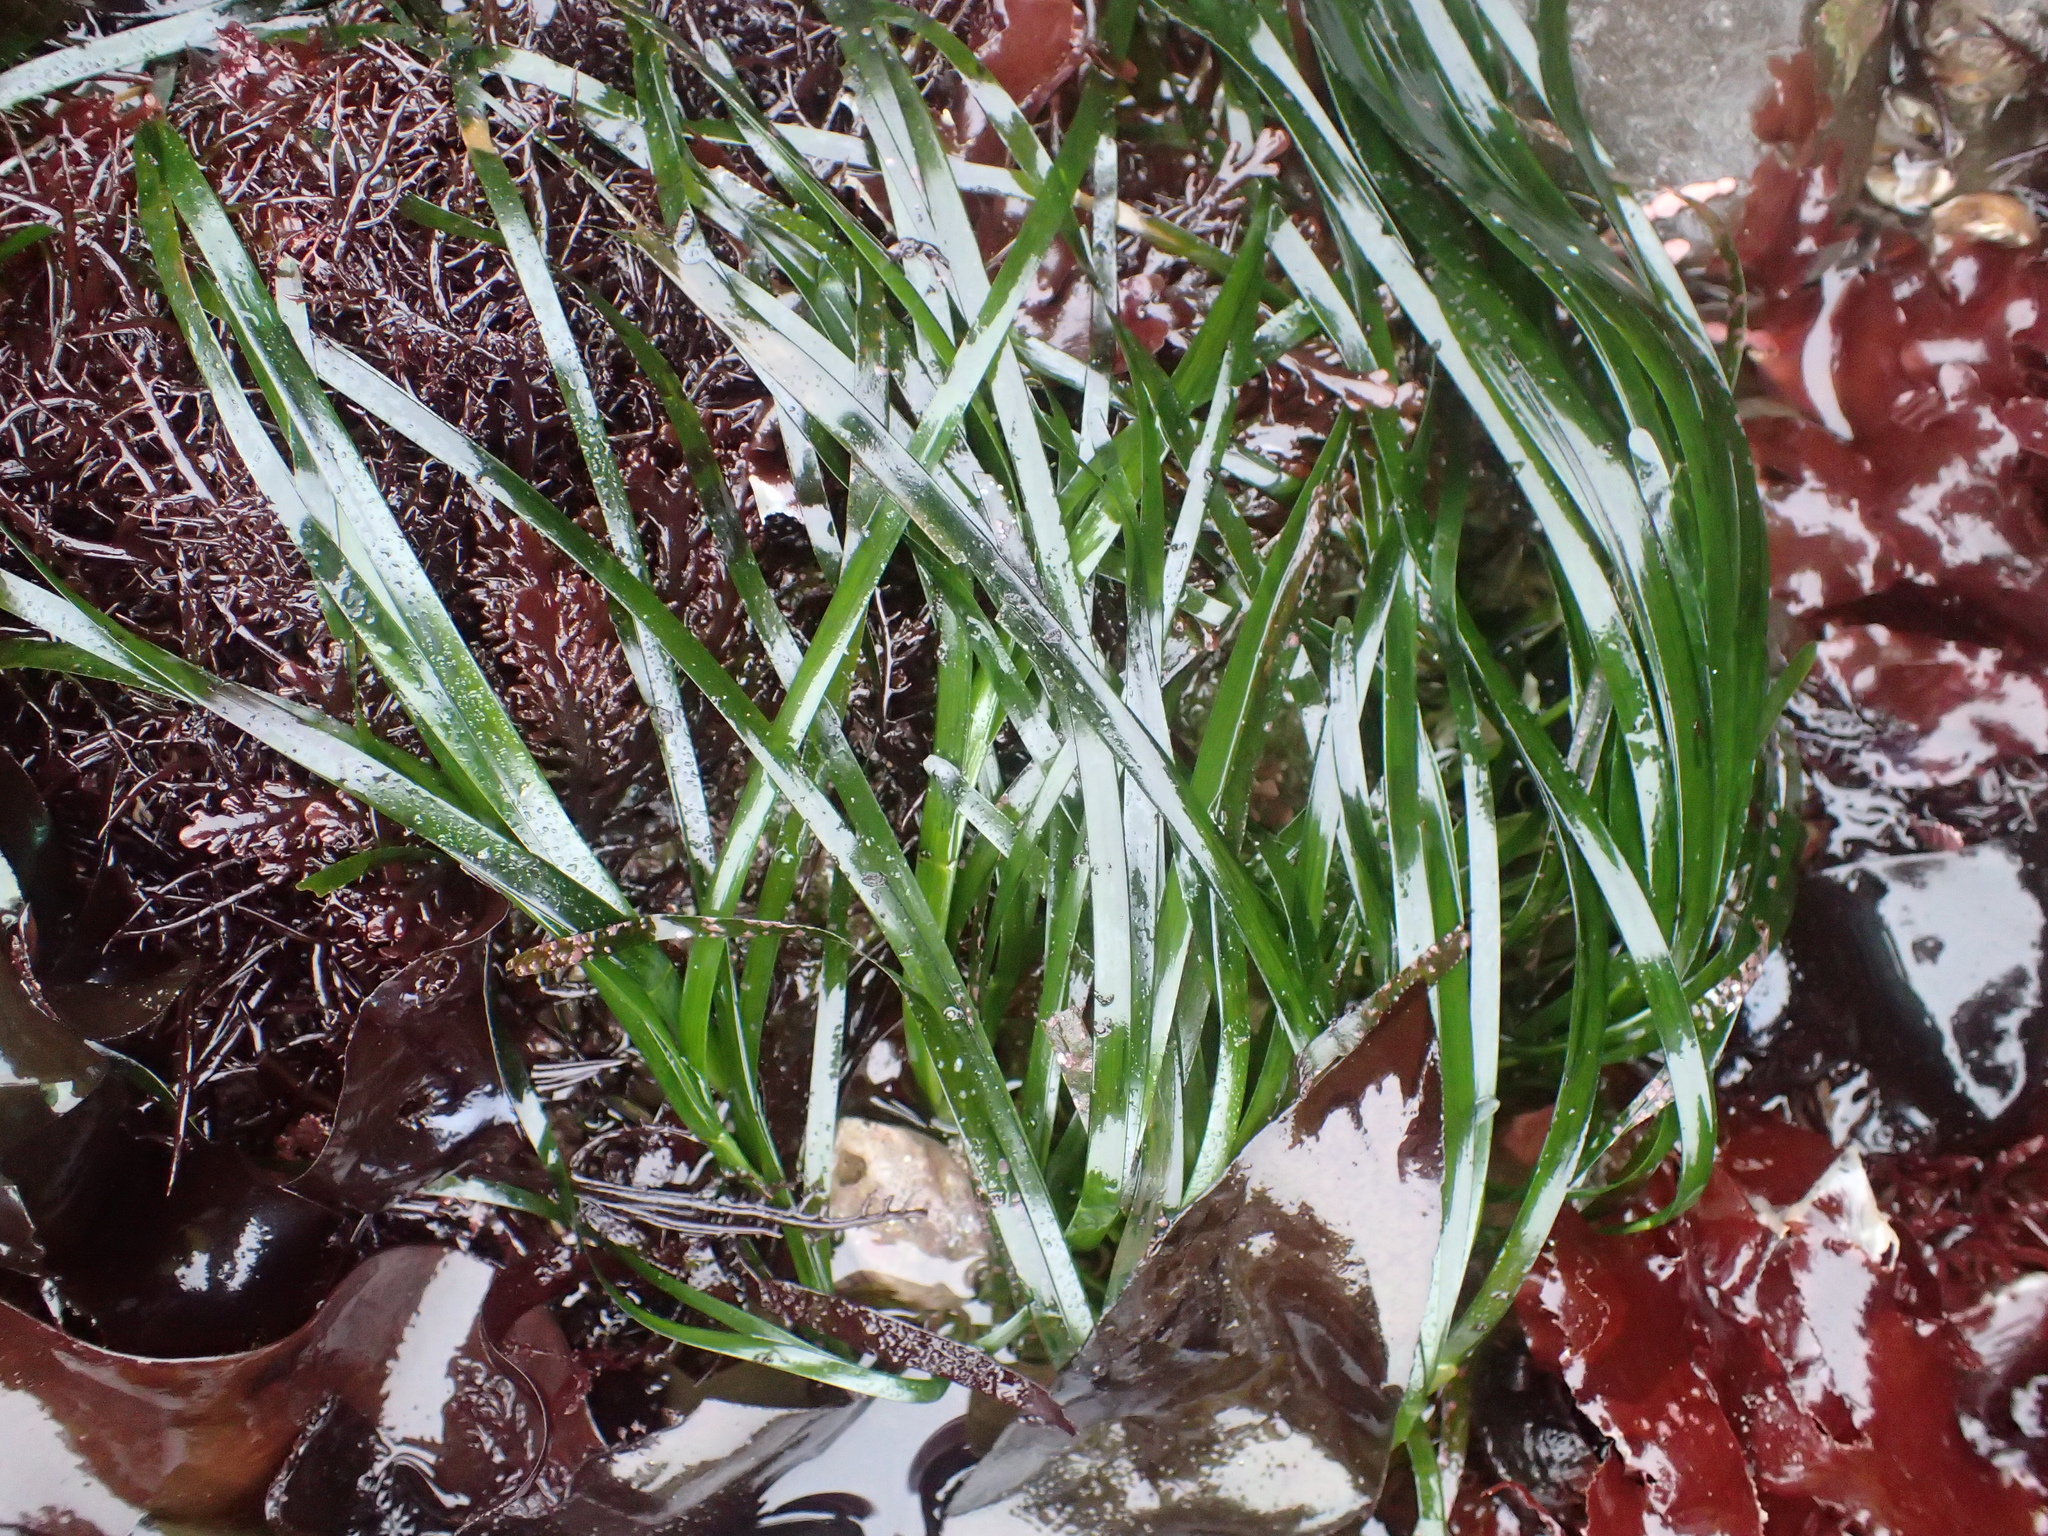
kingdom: Plantae
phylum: Tracheophyta
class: Liliopsida
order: Alismatales
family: Zosteraceae
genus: Phyllospadix
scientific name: Phyllospadix scouleri
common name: Species code: ps
